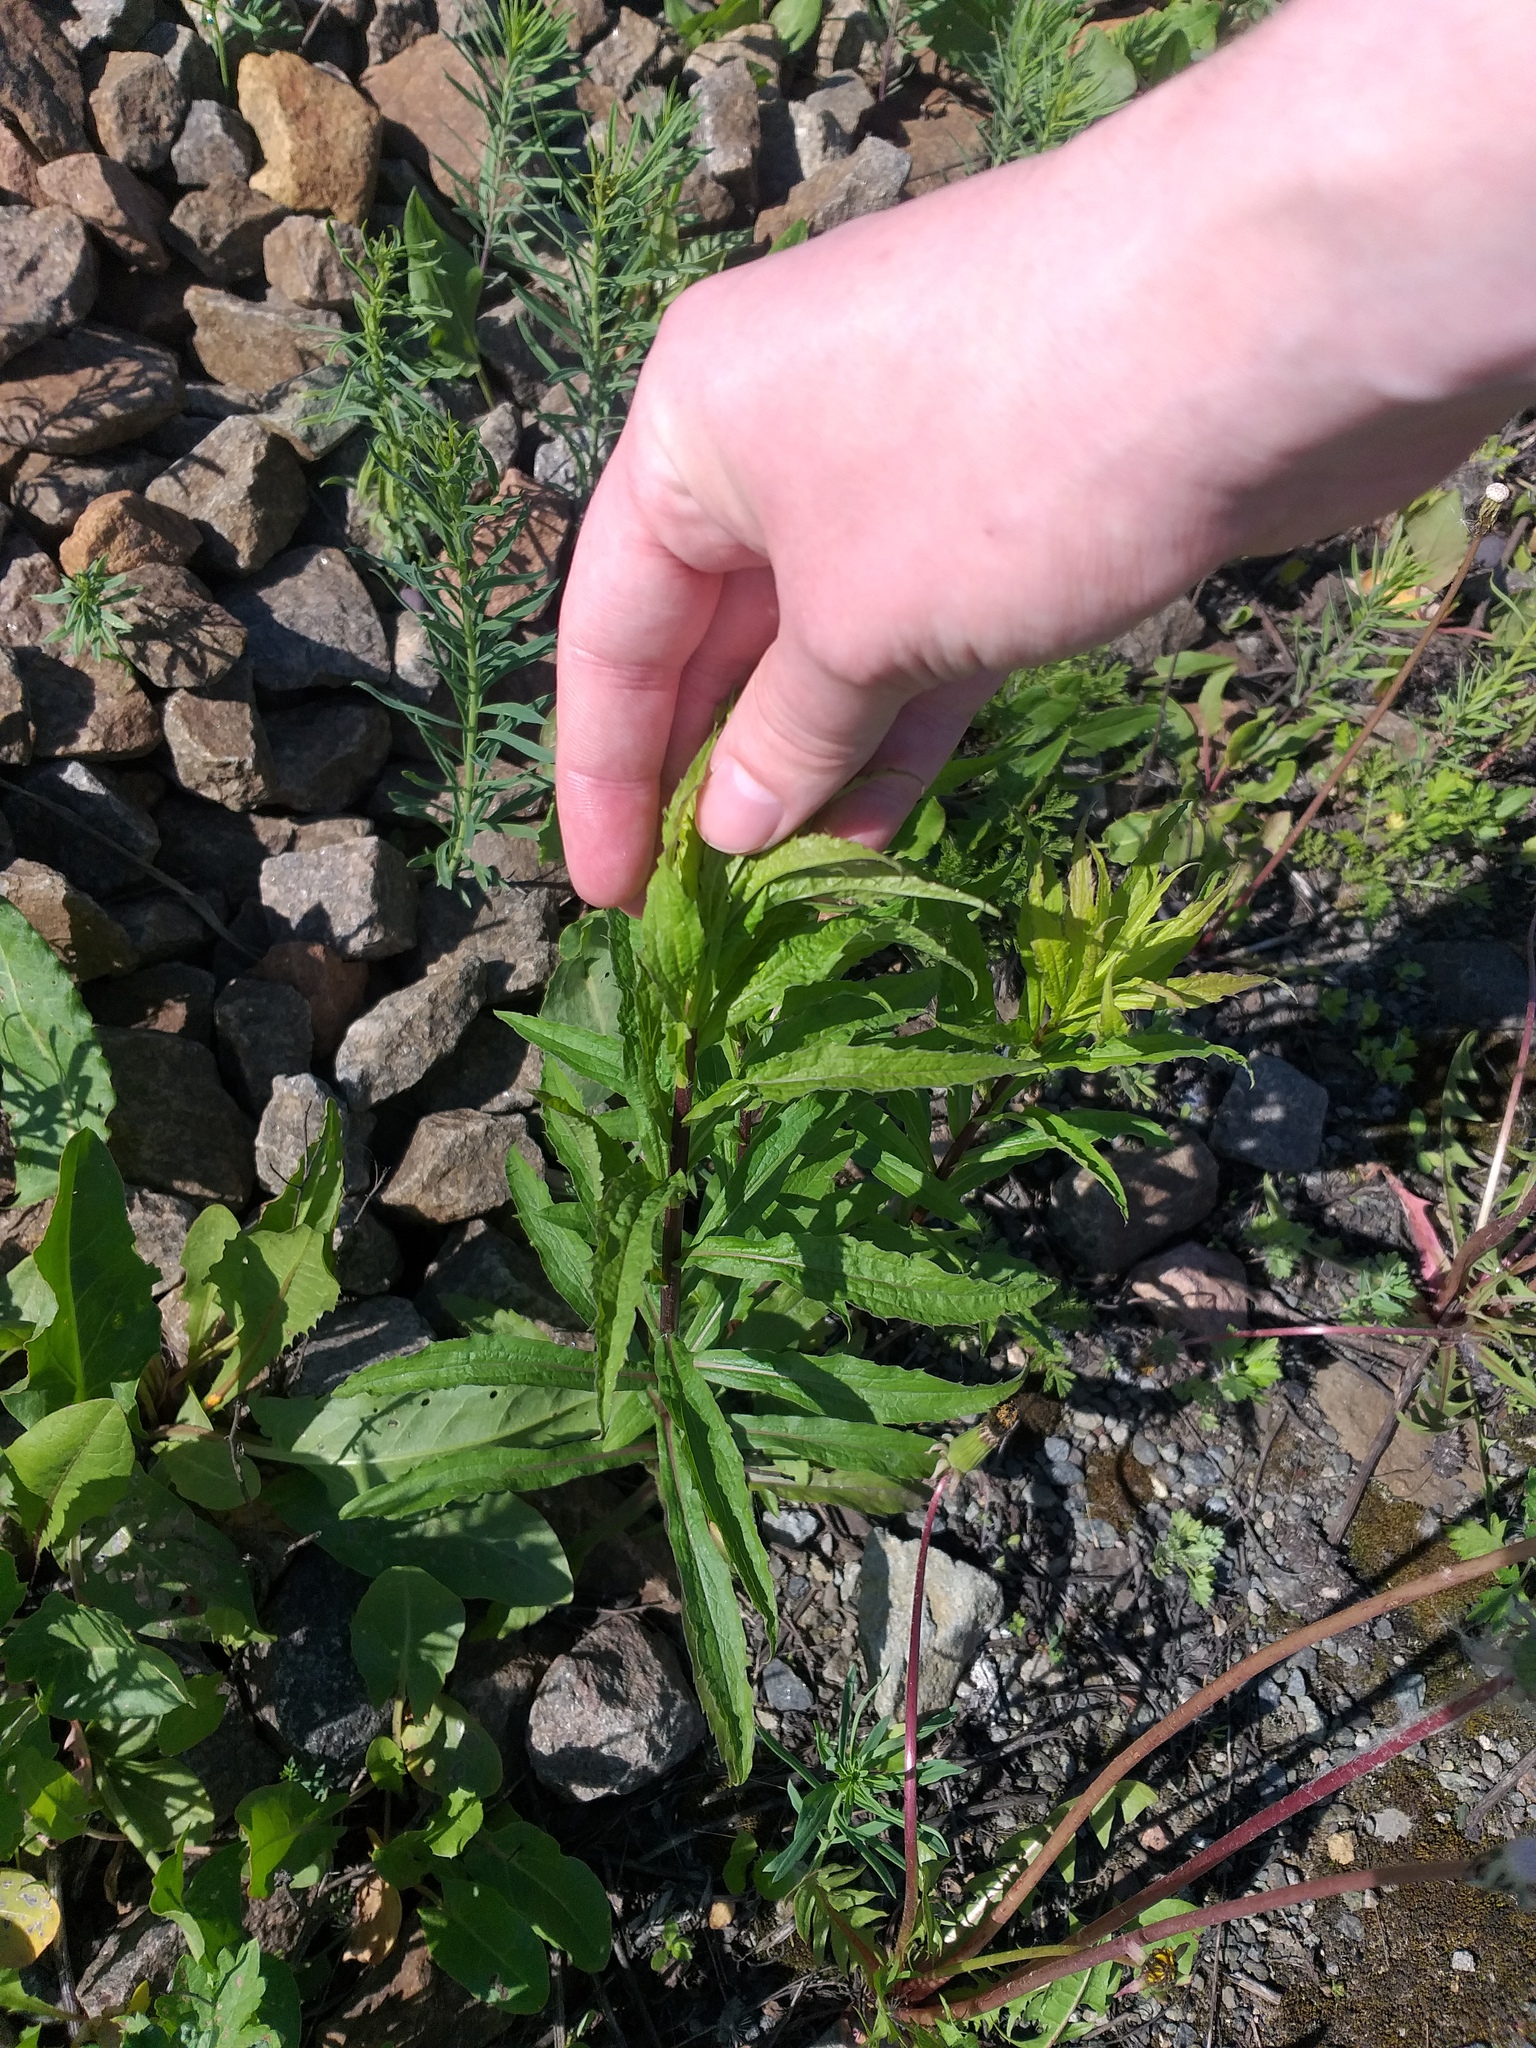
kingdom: Plantae
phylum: Tracheophyta
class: Magnoliopsida
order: Asterales
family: Asteraceae
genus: Solidago
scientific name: Solidago canadensis
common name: Canada goldenrod
